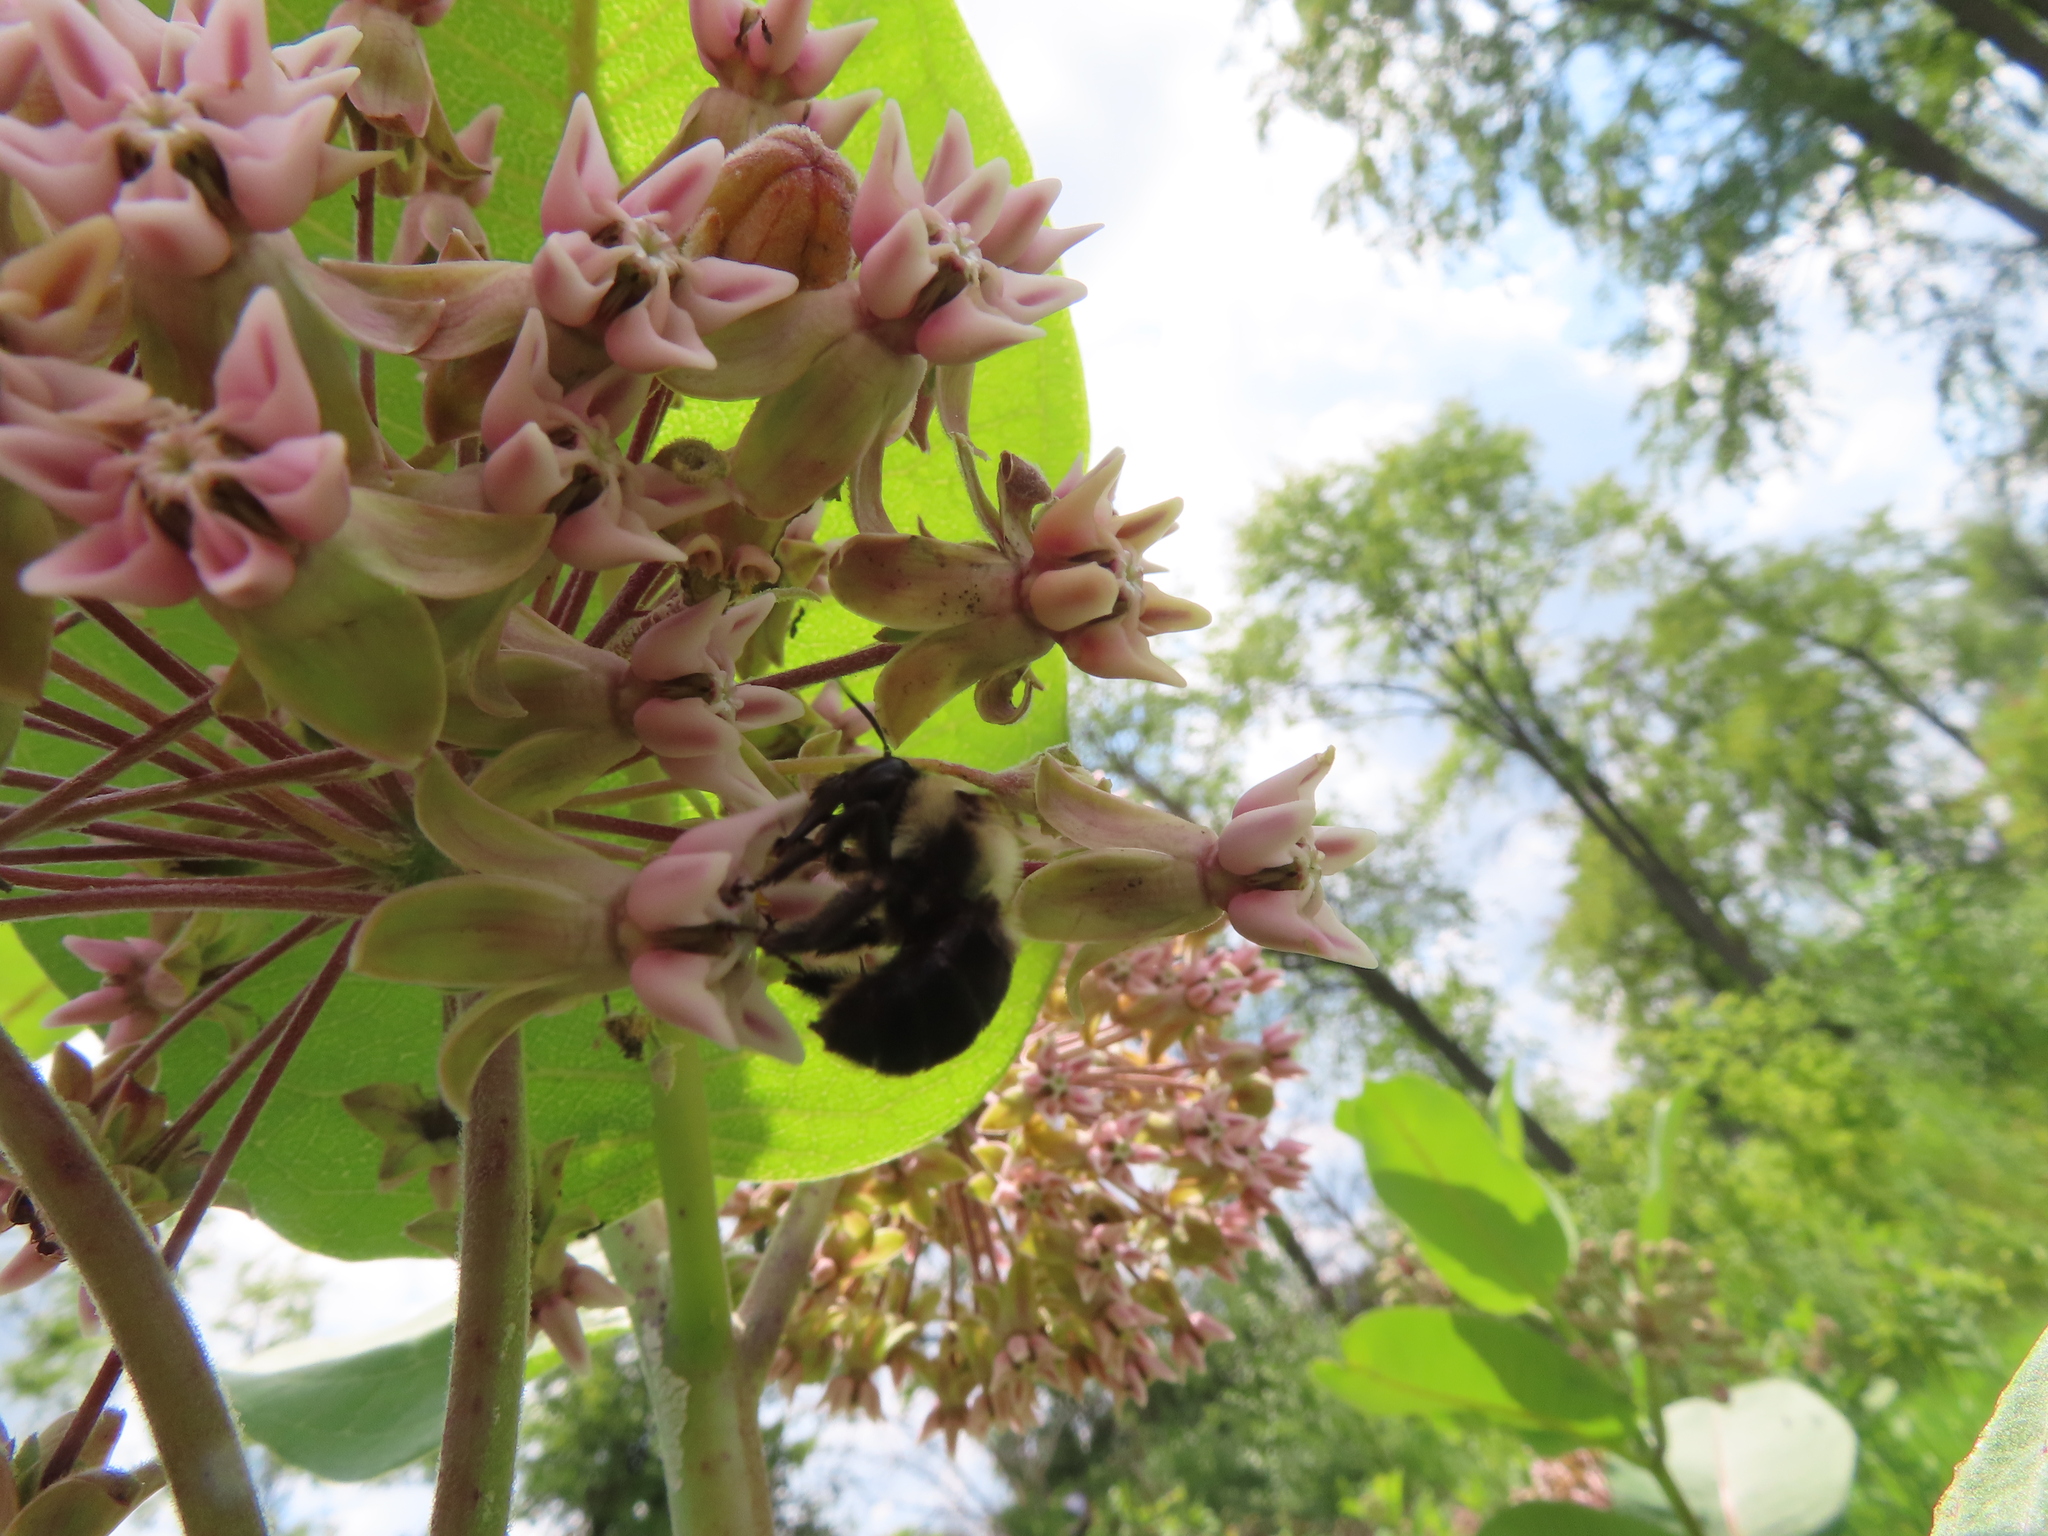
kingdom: Animalia
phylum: Arthropoda
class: Insecta
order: Hymenoptera
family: Apidae
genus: Anthophora
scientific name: Anthophora abrupta
